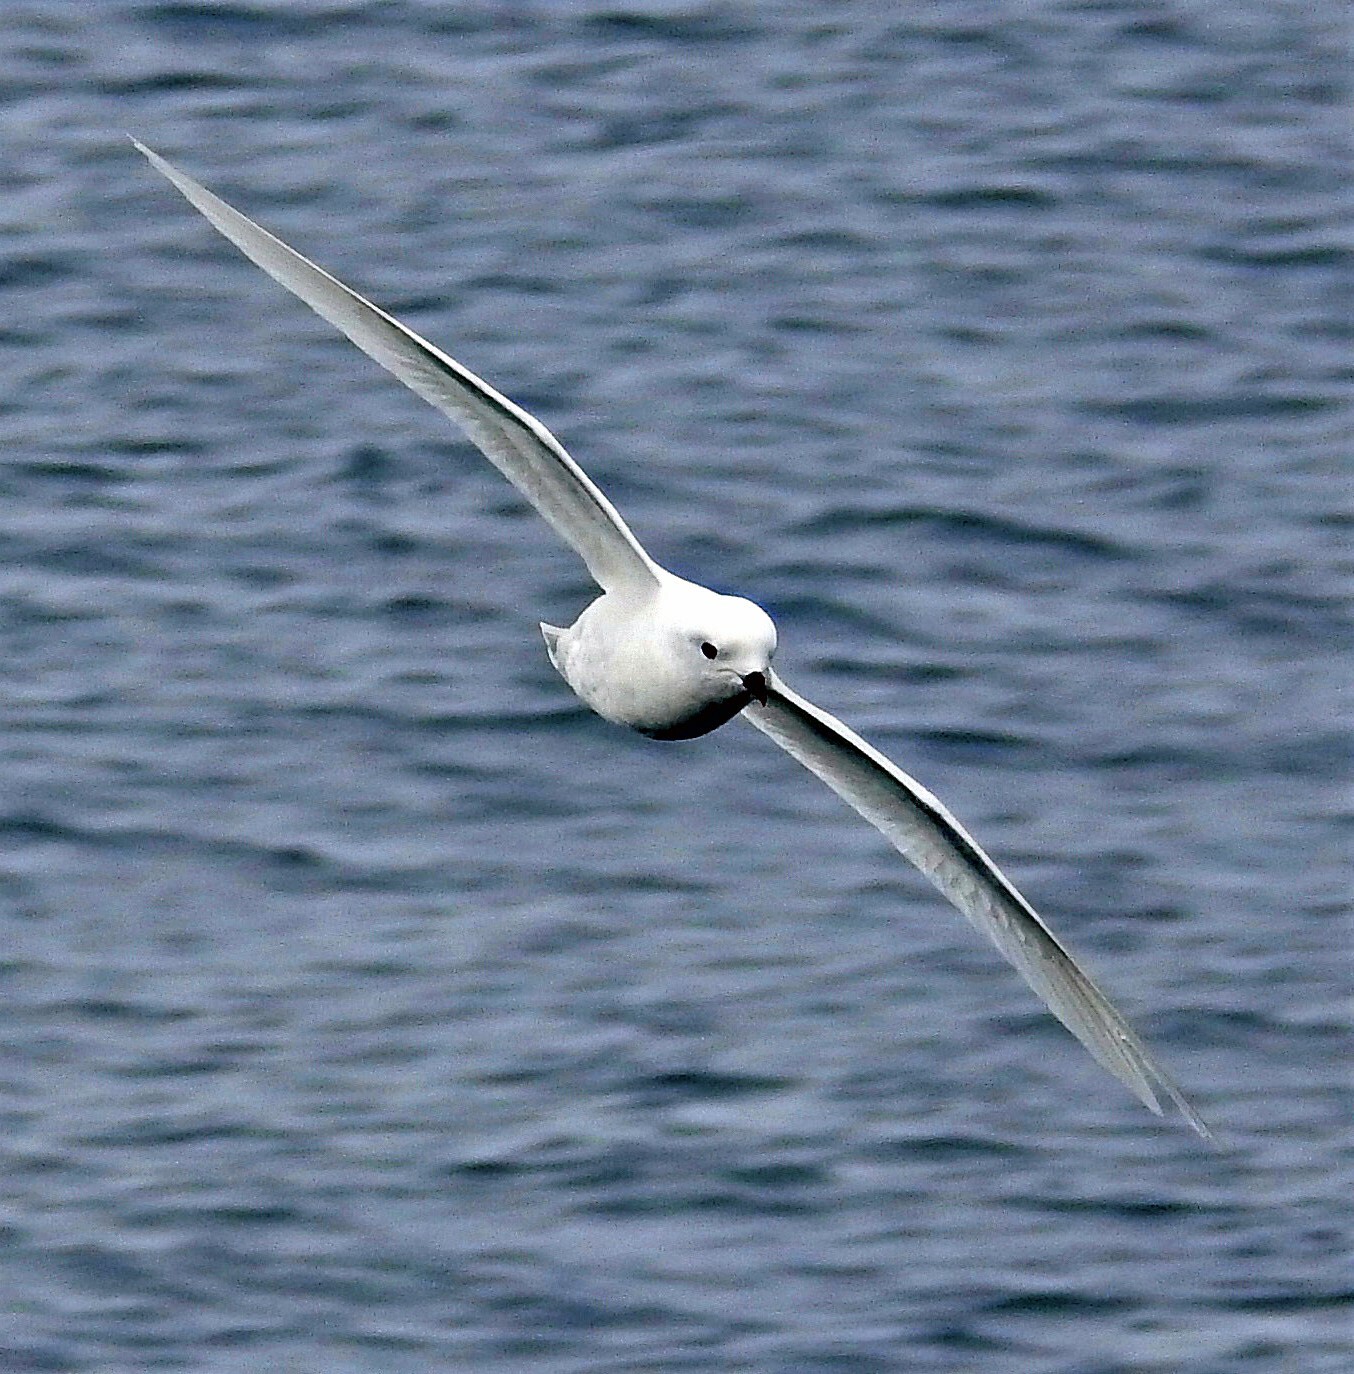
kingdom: Animalia
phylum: Chordata
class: Aves
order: Procellariiformes
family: Procellariidae
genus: Pagodroma
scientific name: Pagodroma nivea
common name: Snow petrel
